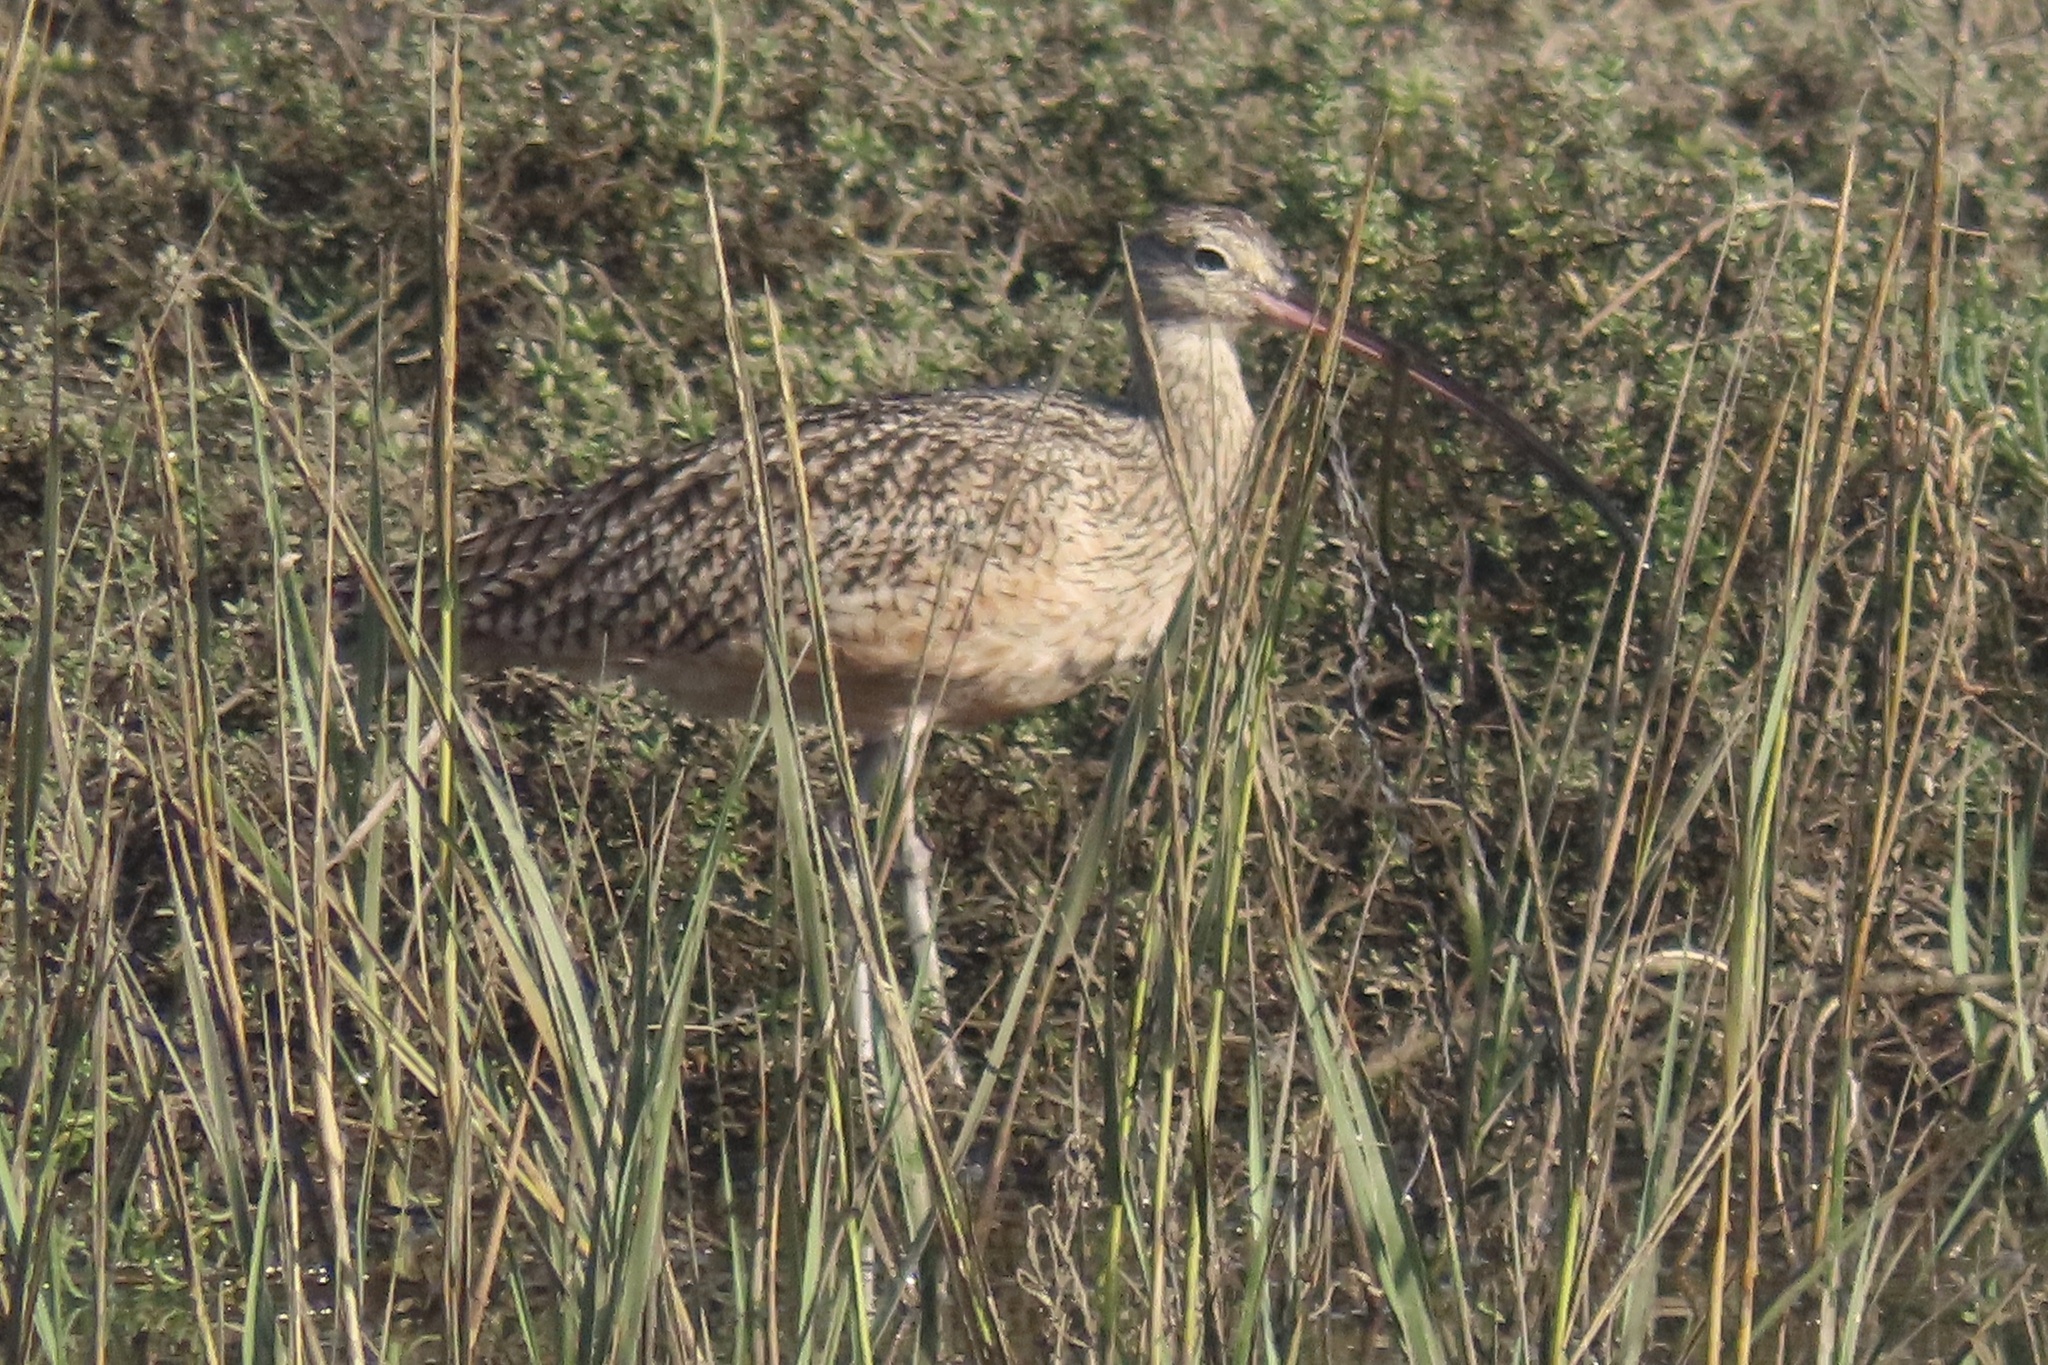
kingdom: Animalia
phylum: Chordata
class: Aves
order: Charadriiformes
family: Scolopacidae
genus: Numenius
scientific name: Numenius americanus
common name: Long-billed curlew
